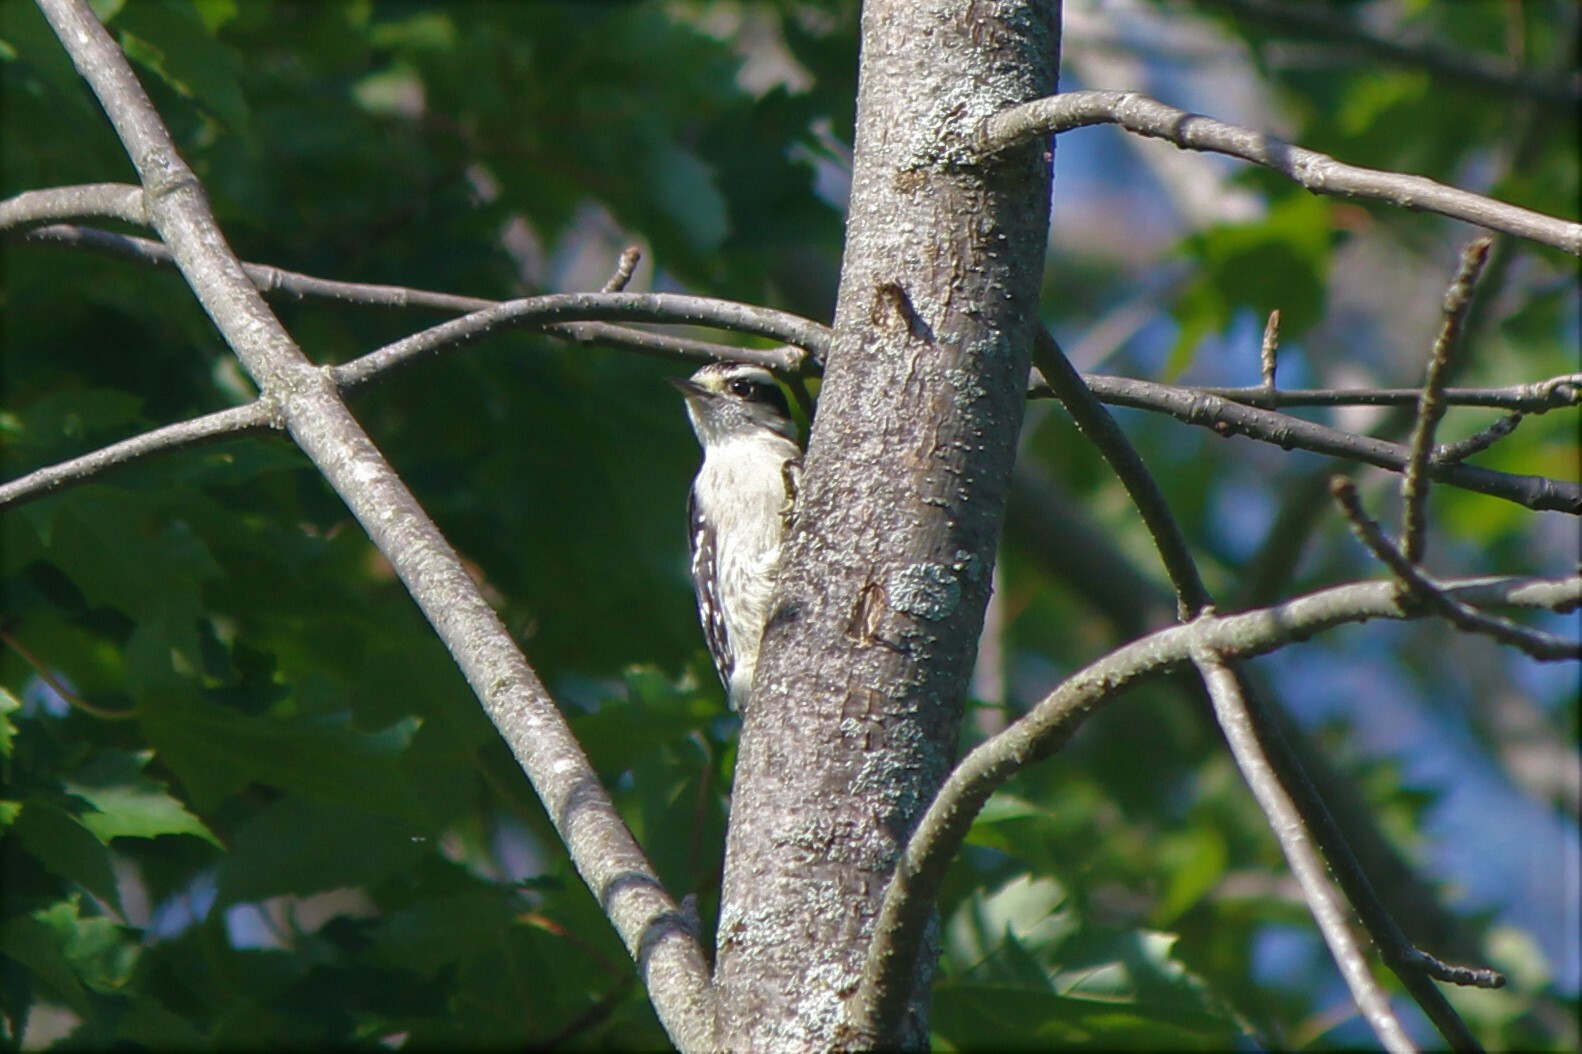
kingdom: Animalia
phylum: Chordata
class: Aves
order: Piciformes
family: Picidae
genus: Dryobates
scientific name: Dryobates pubescens
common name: Downy woodpecker
